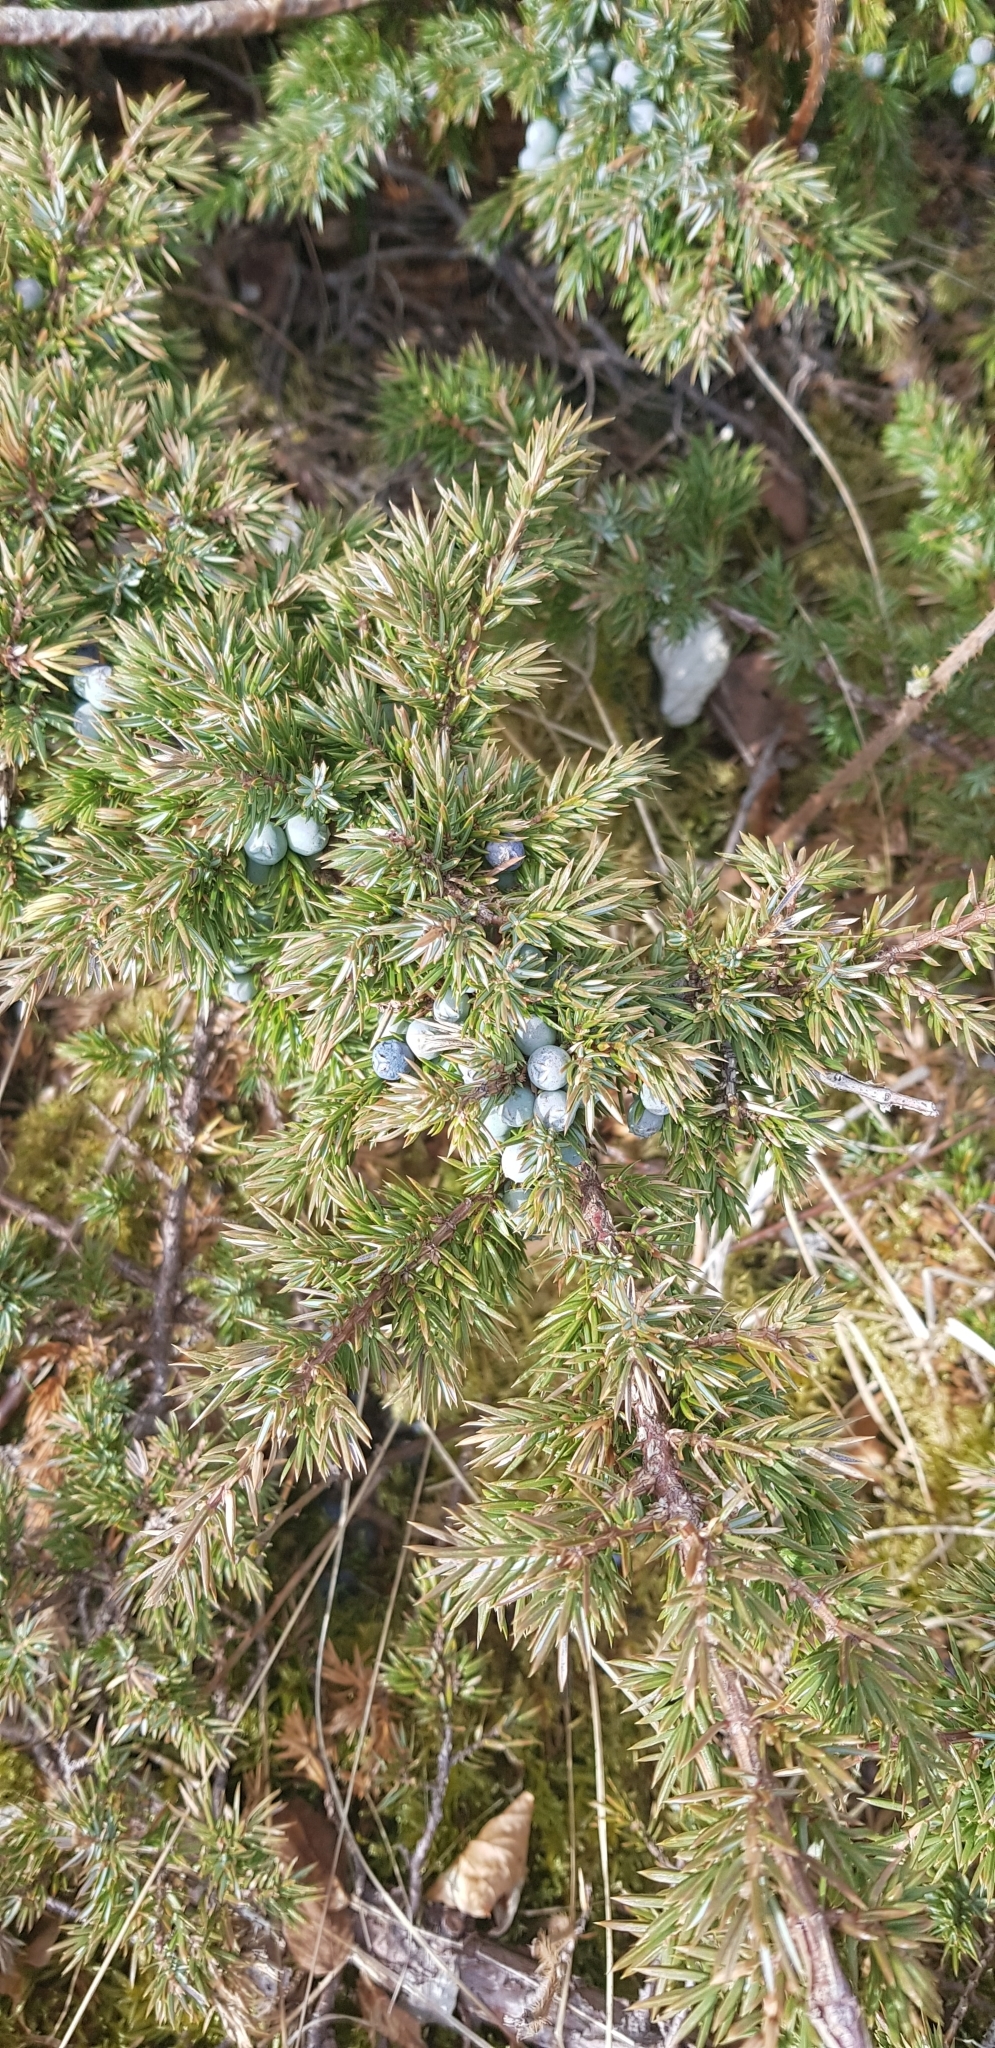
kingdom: Plantae
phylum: Tracheophyta
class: Pinopsida
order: Pinales
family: Cupressaceae
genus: Juniperus
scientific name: Juniperus communis
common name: Common juniper
